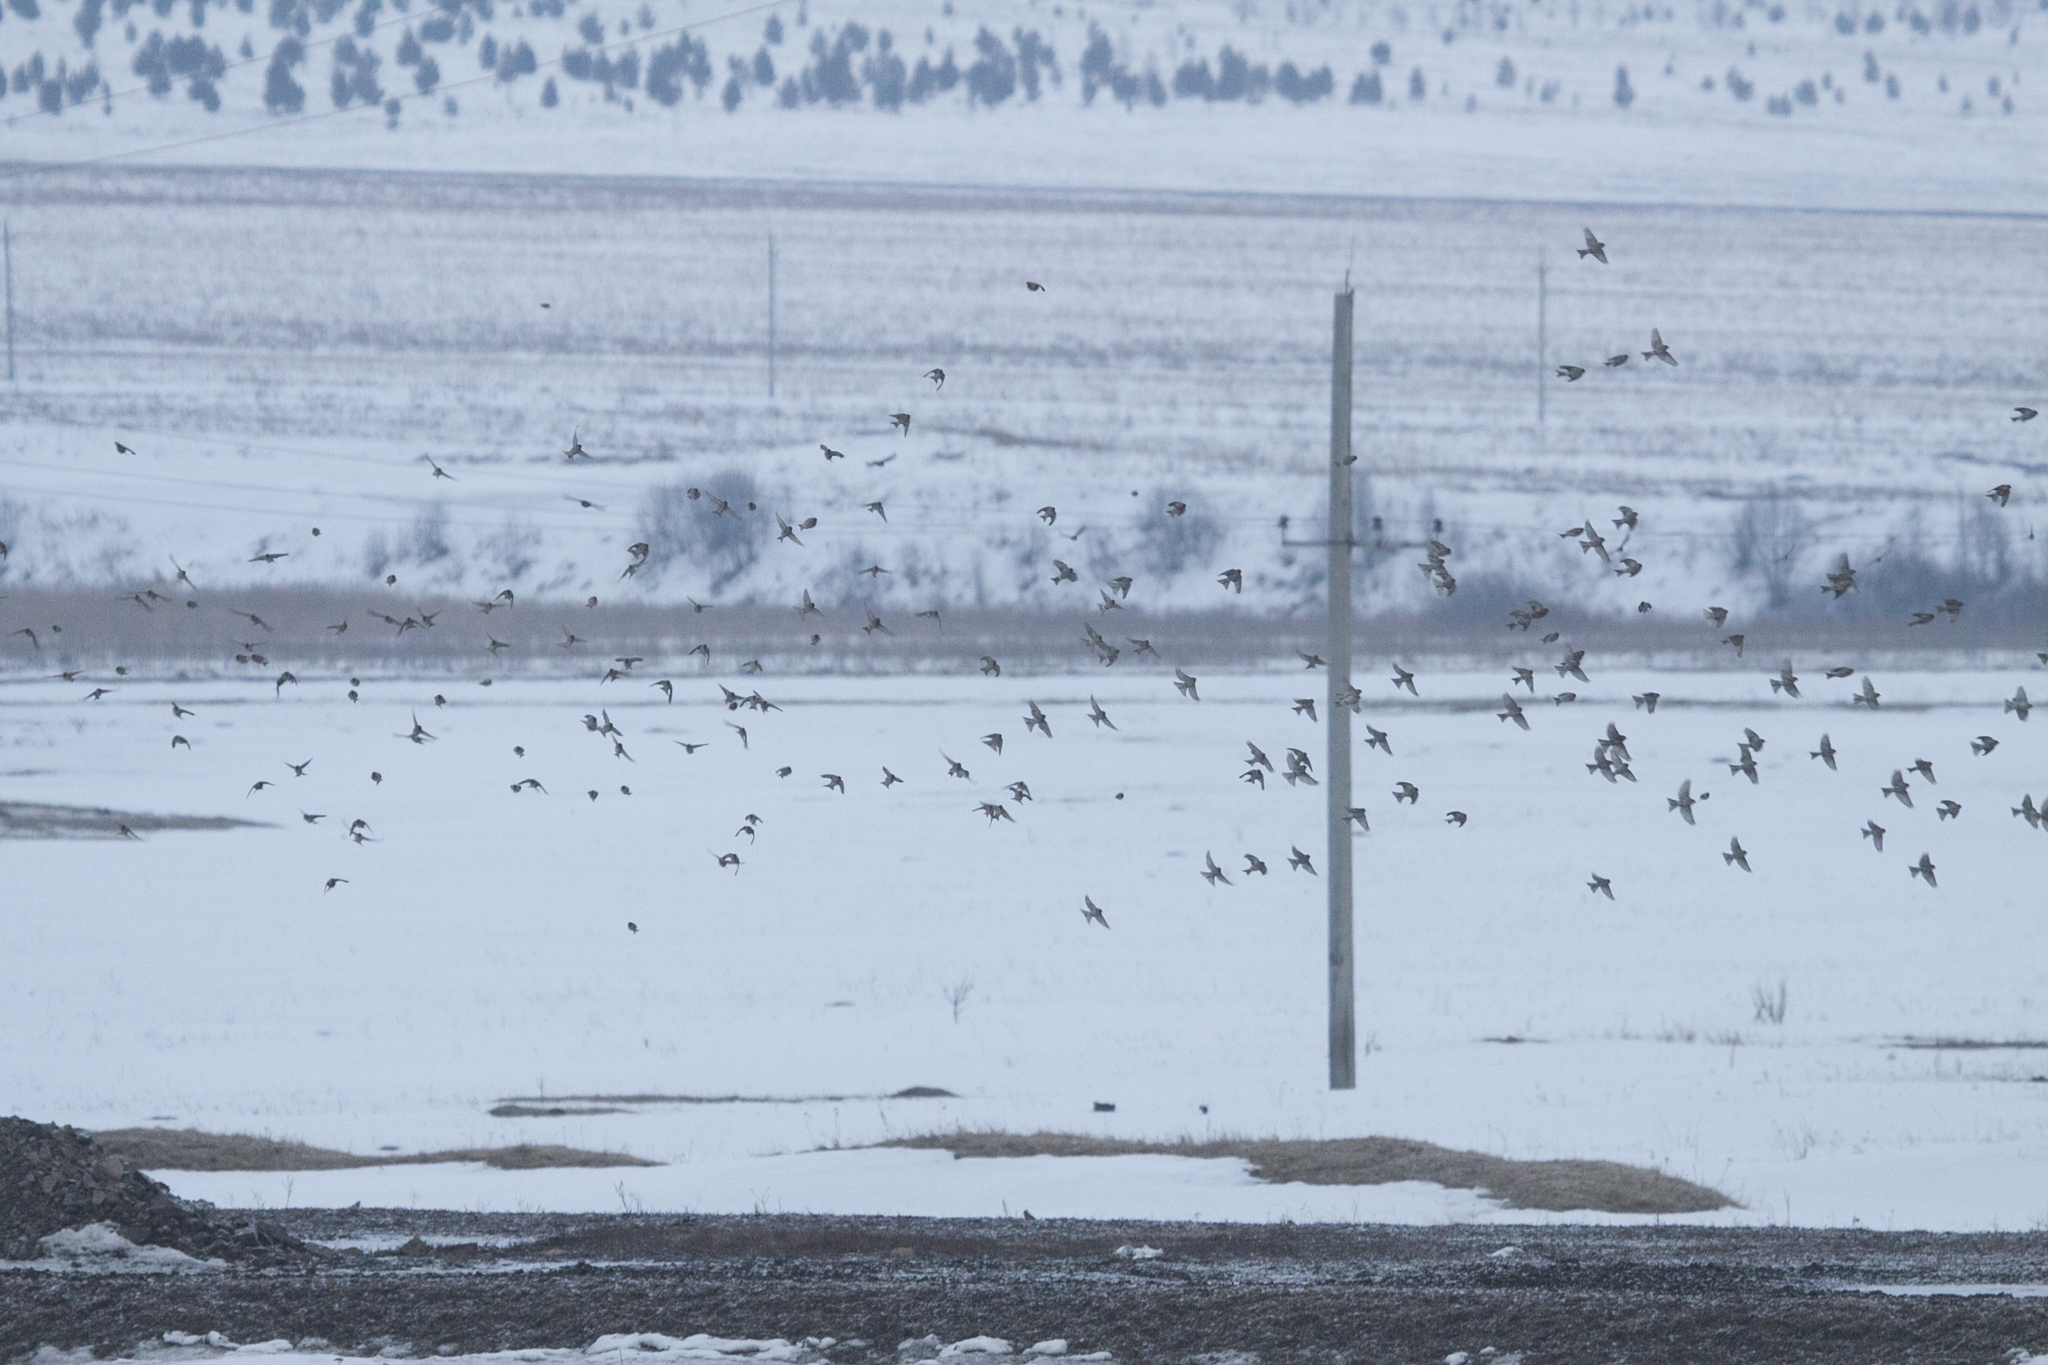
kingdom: Animalia
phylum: Chordata
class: Aves
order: Passeriformes
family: Fringillidae
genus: Acanthis
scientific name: Acanthis flammea
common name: Common redpoll
